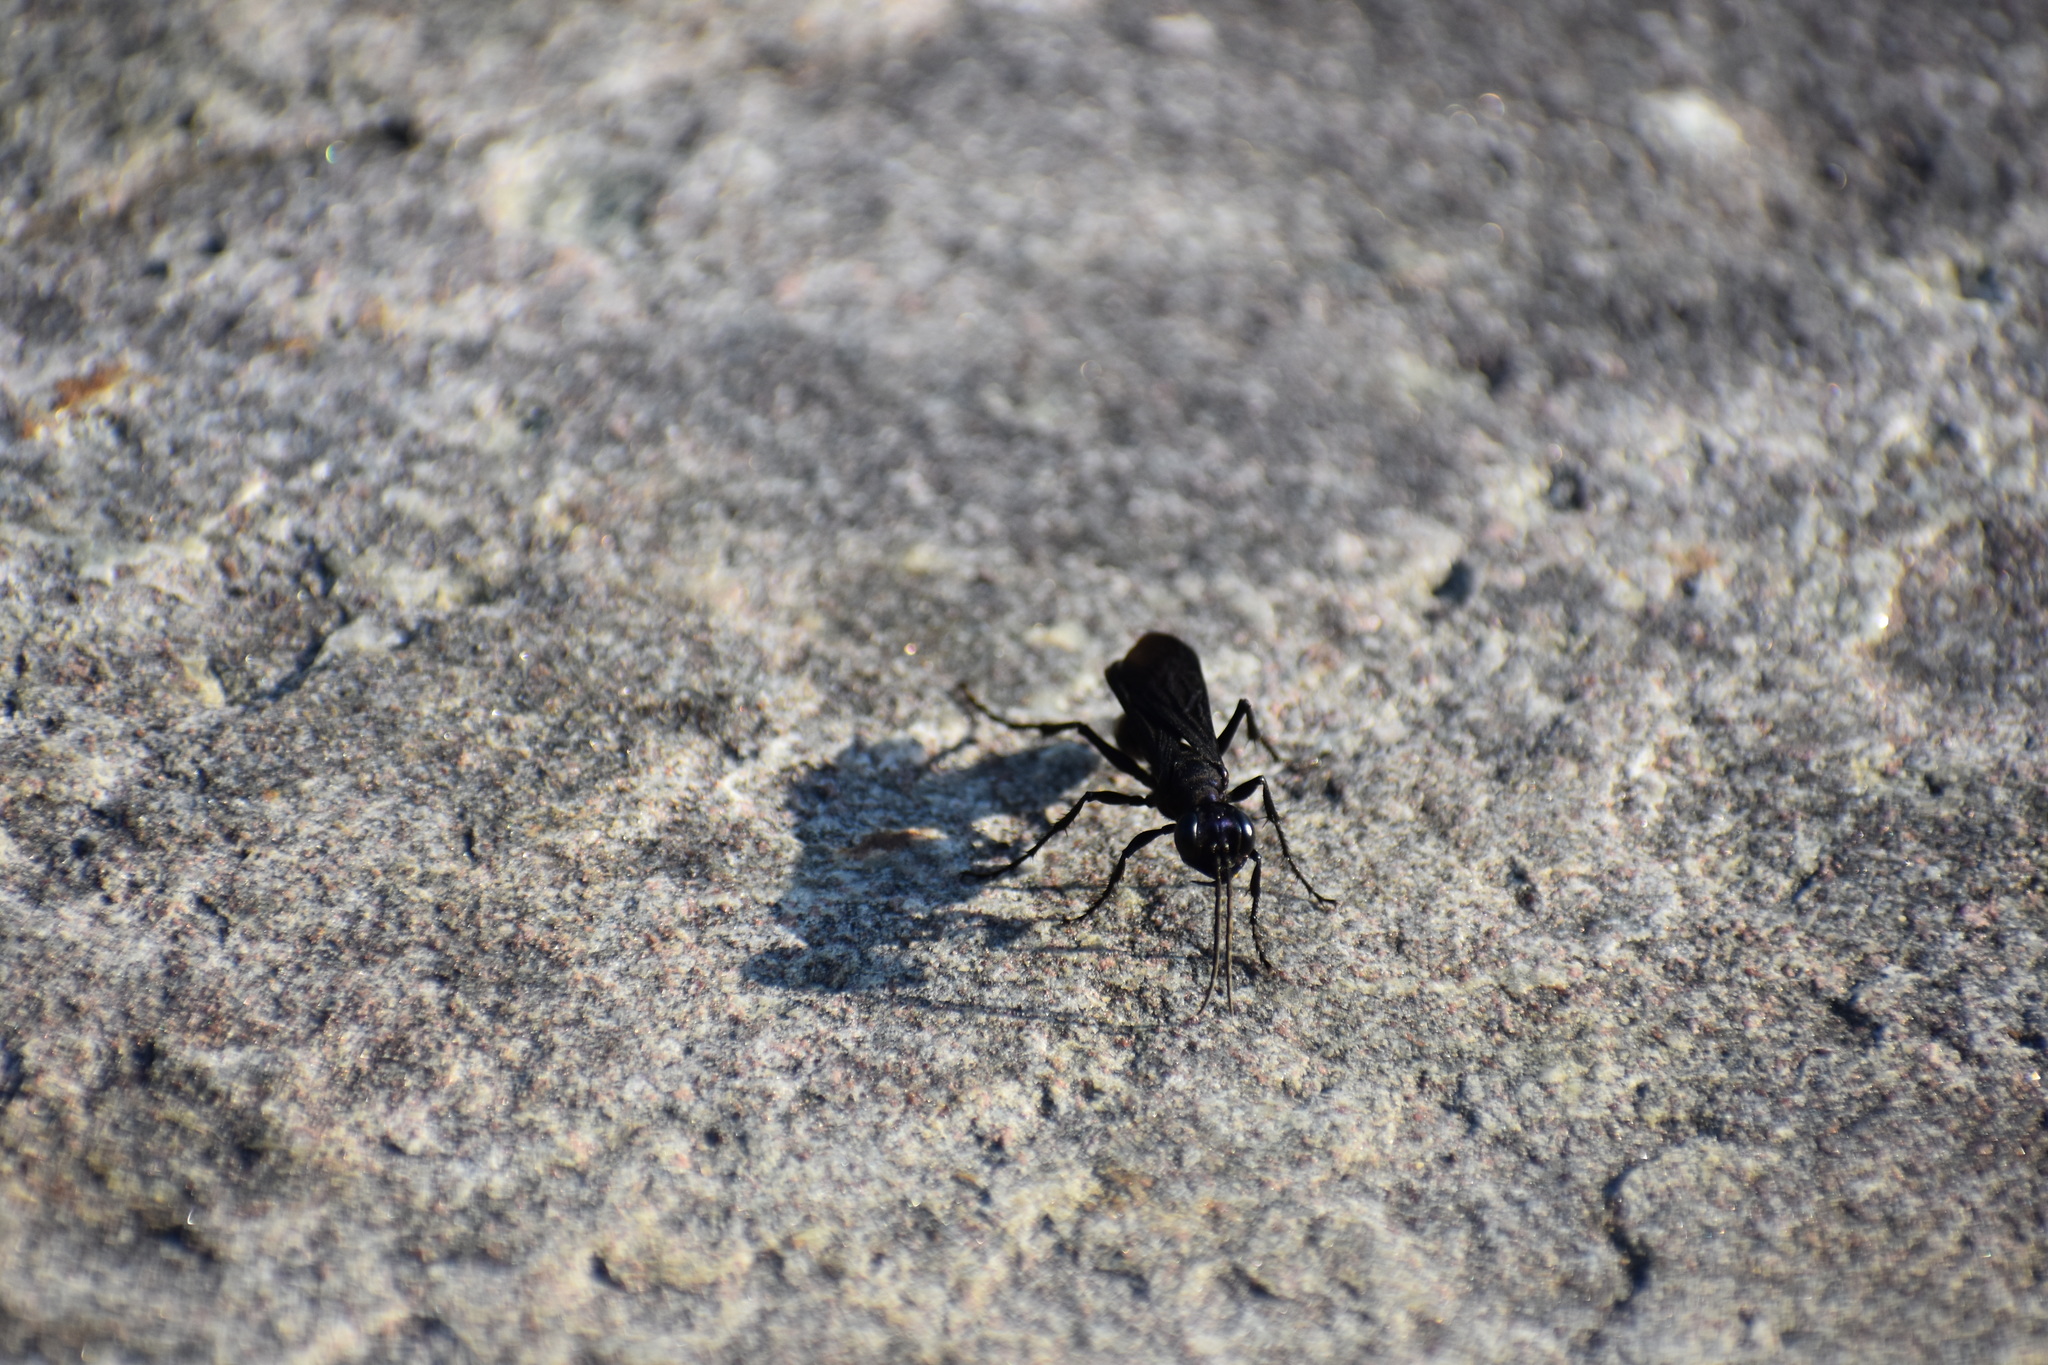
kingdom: Animalia
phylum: Arthropoda
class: Insecta
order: Hymenoptera
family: Sphecidae
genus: Chlorion
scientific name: Chlorion aerarium
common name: Steel-blue cricket hunter
